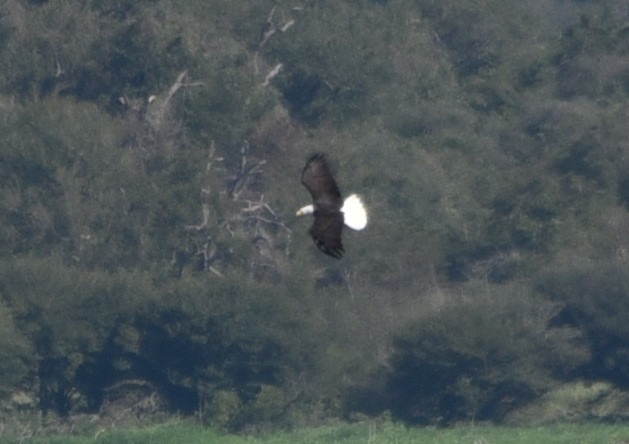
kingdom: Animalia
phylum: Chordata
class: Aves
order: Accipitriformes
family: Accipitridae
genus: Haliaeetus
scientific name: Haliaeetus leucocephalus
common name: Bald eagle
